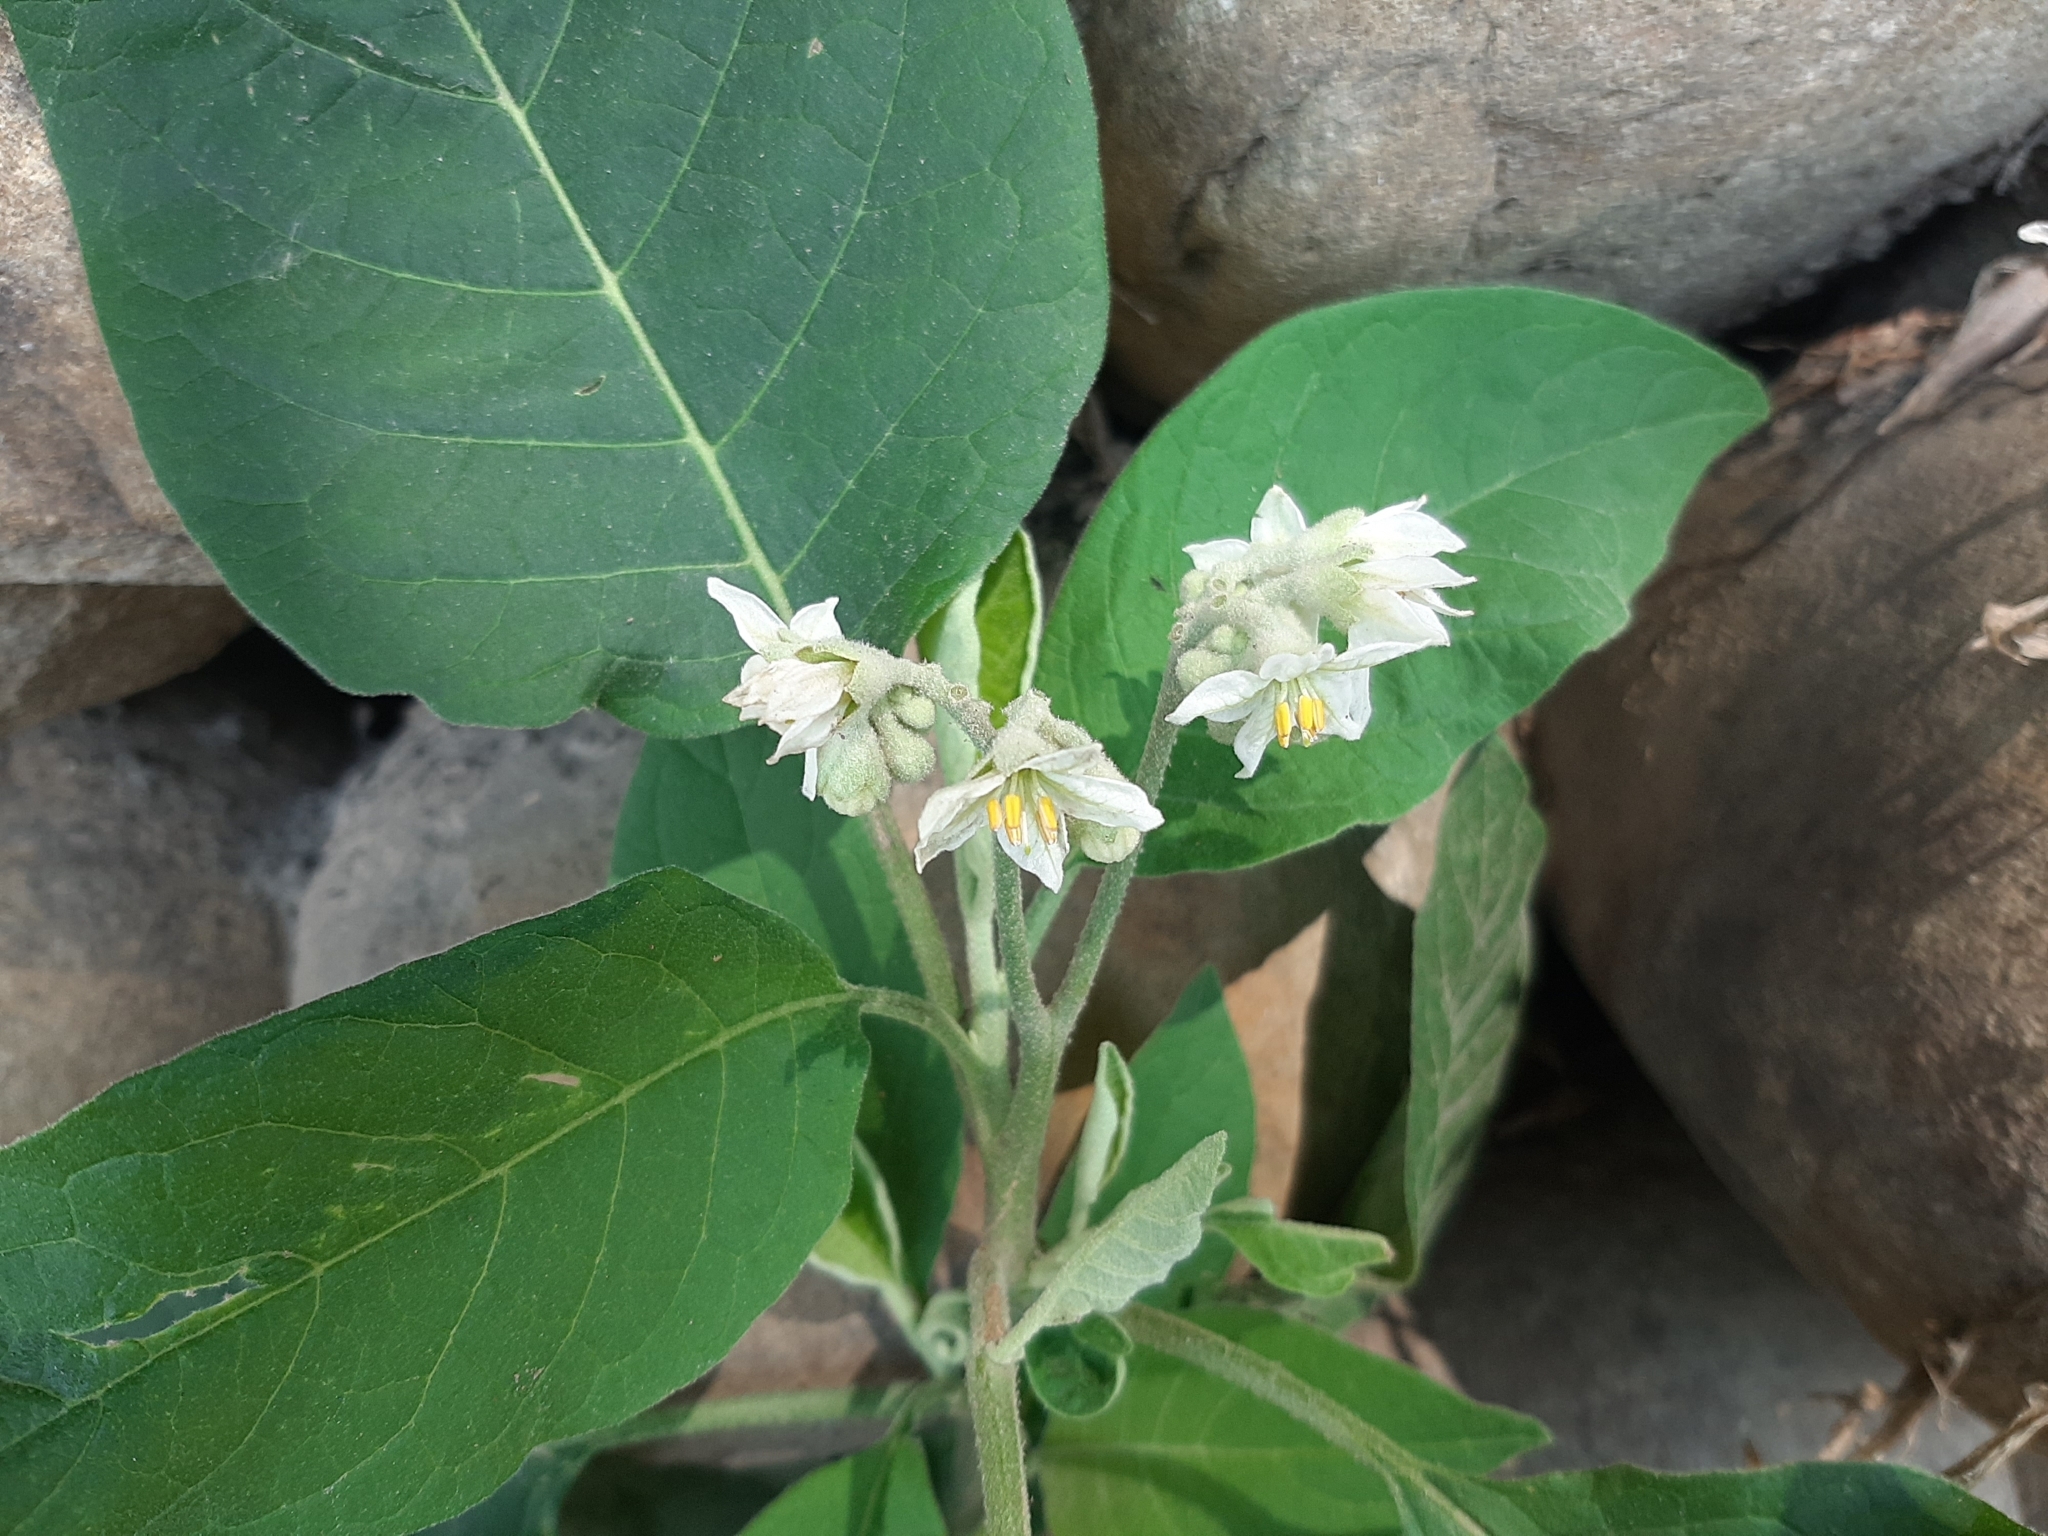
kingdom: Plantae
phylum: Tracheophyta
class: Magnoliopsida
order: Solanales
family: Solanaceae
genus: Solanum
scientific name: Solanum erianthum
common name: Tobacco-tree
